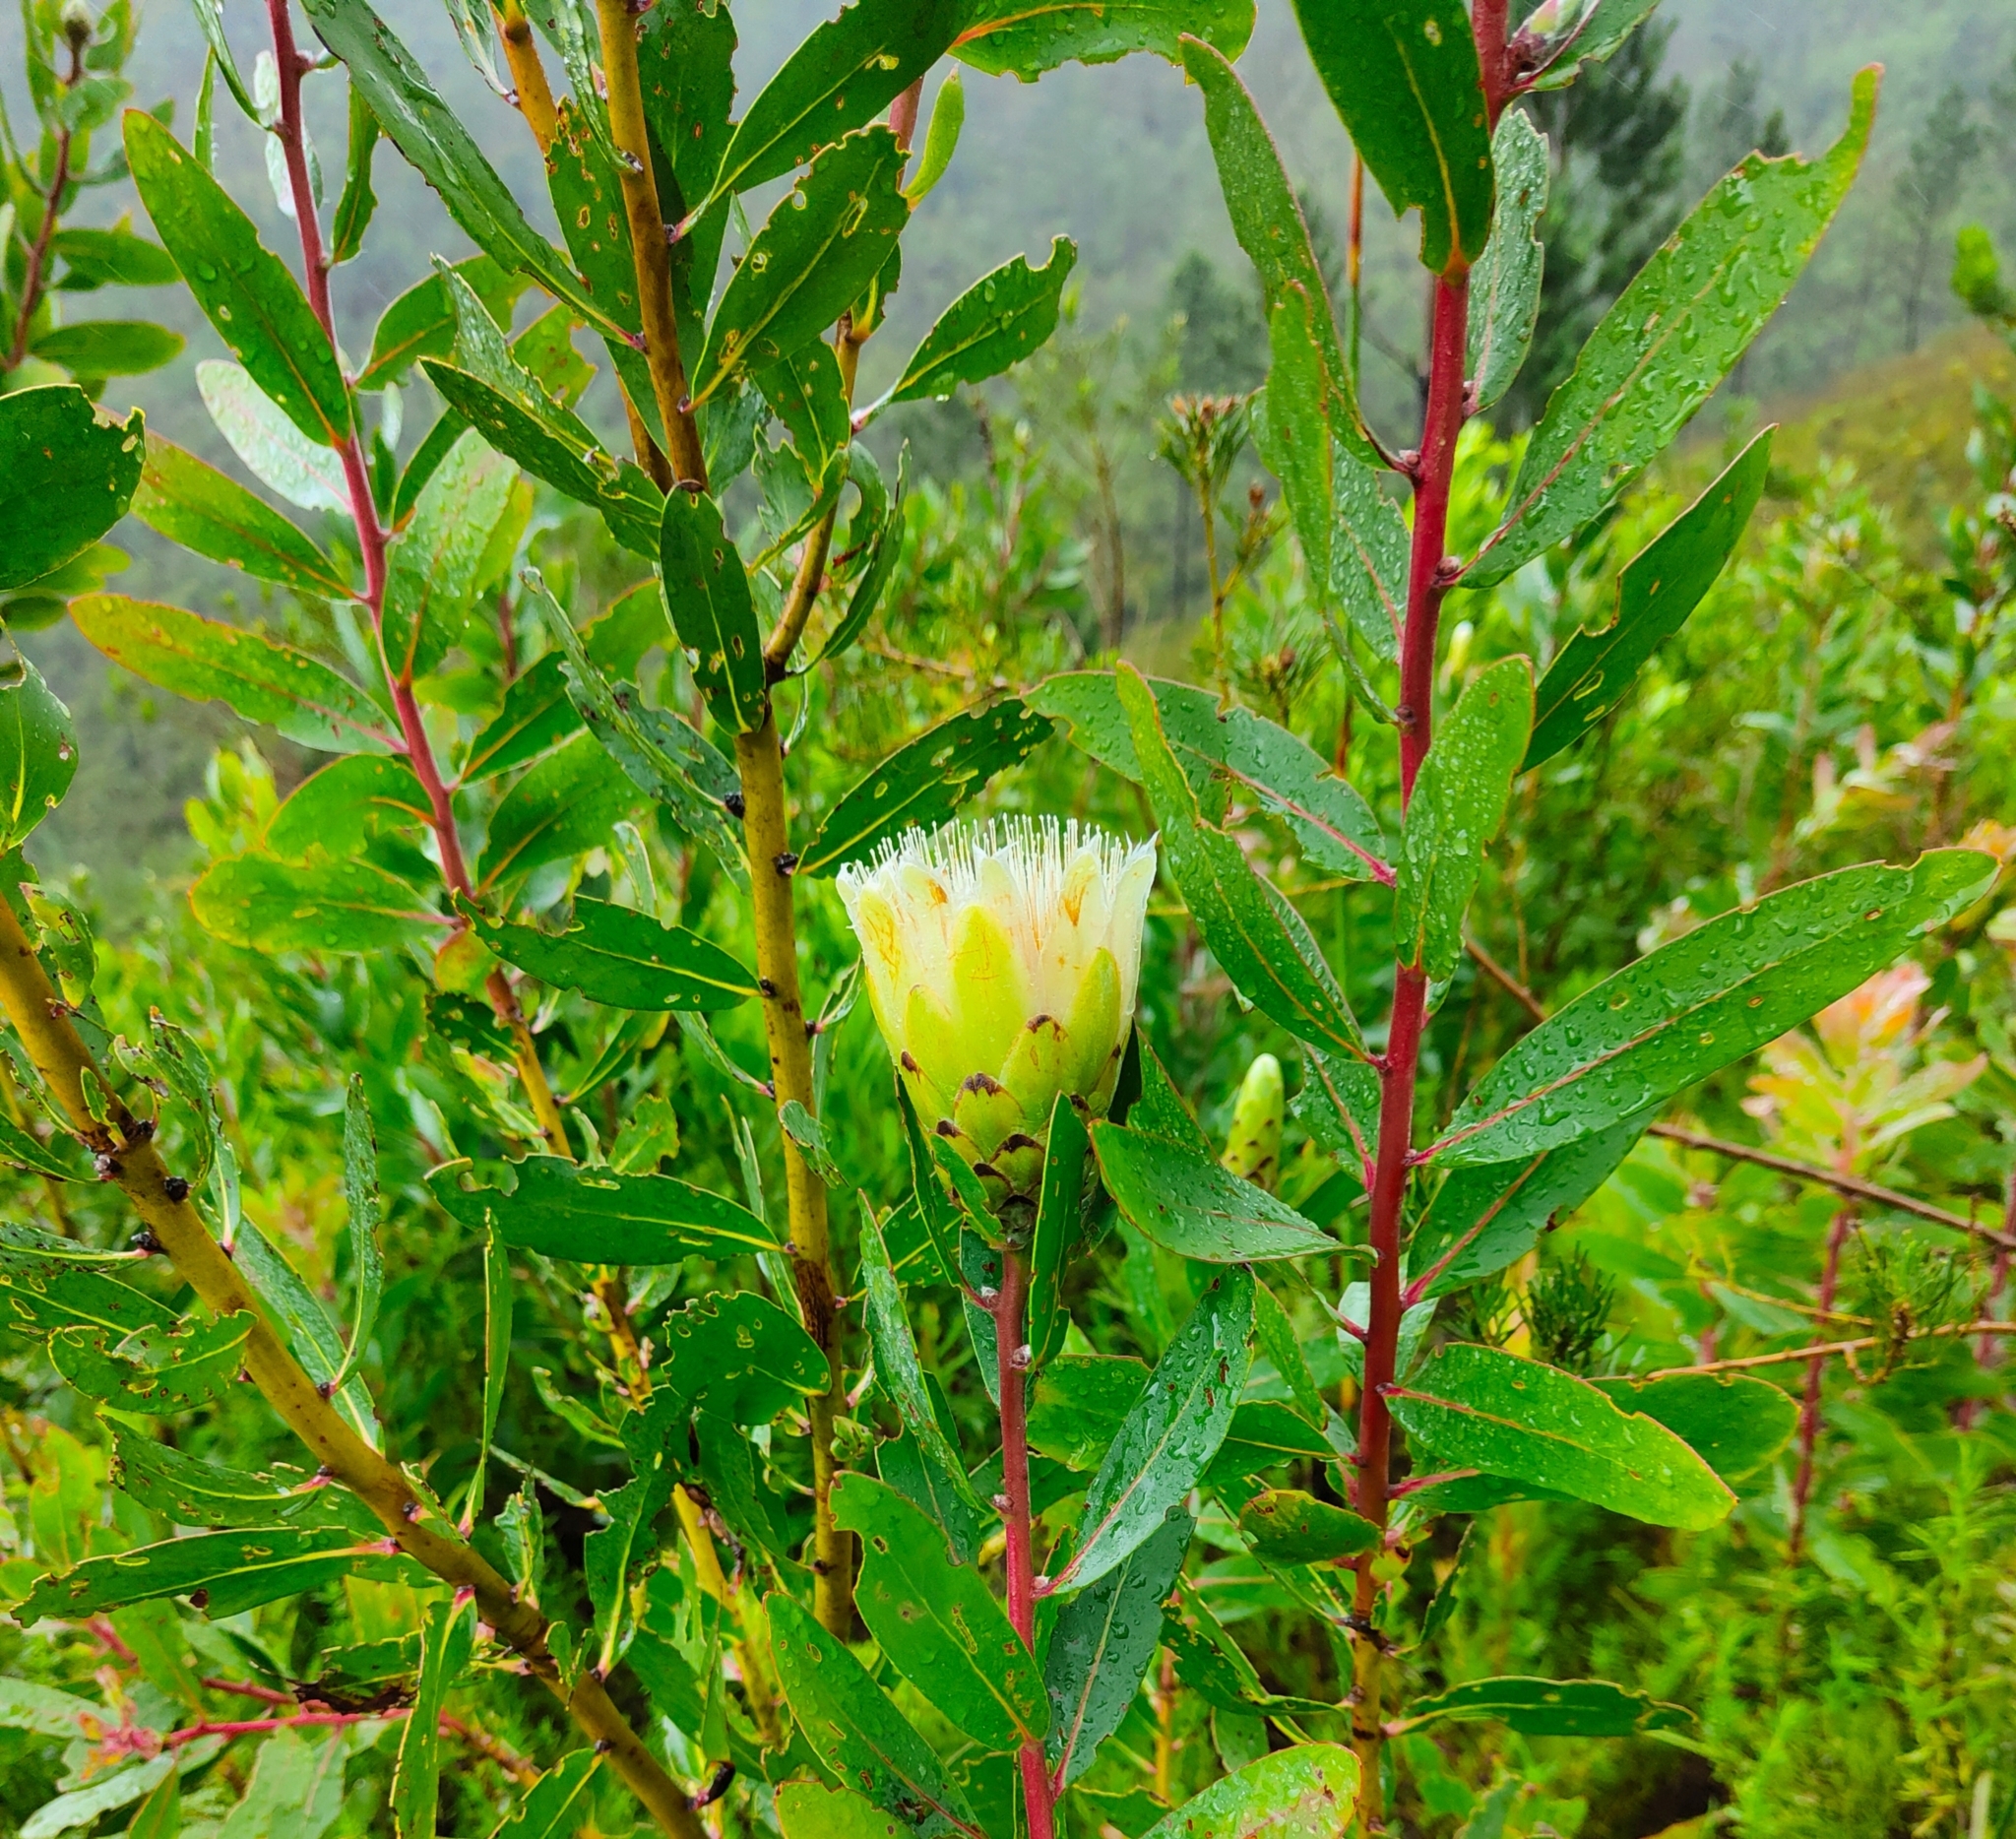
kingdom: Plantae
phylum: Tracheophyta
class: Magnoliopsida
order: Proteales
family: Proteaceae
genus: Protea
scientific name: Protea mundii
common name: Forest sugarbush
